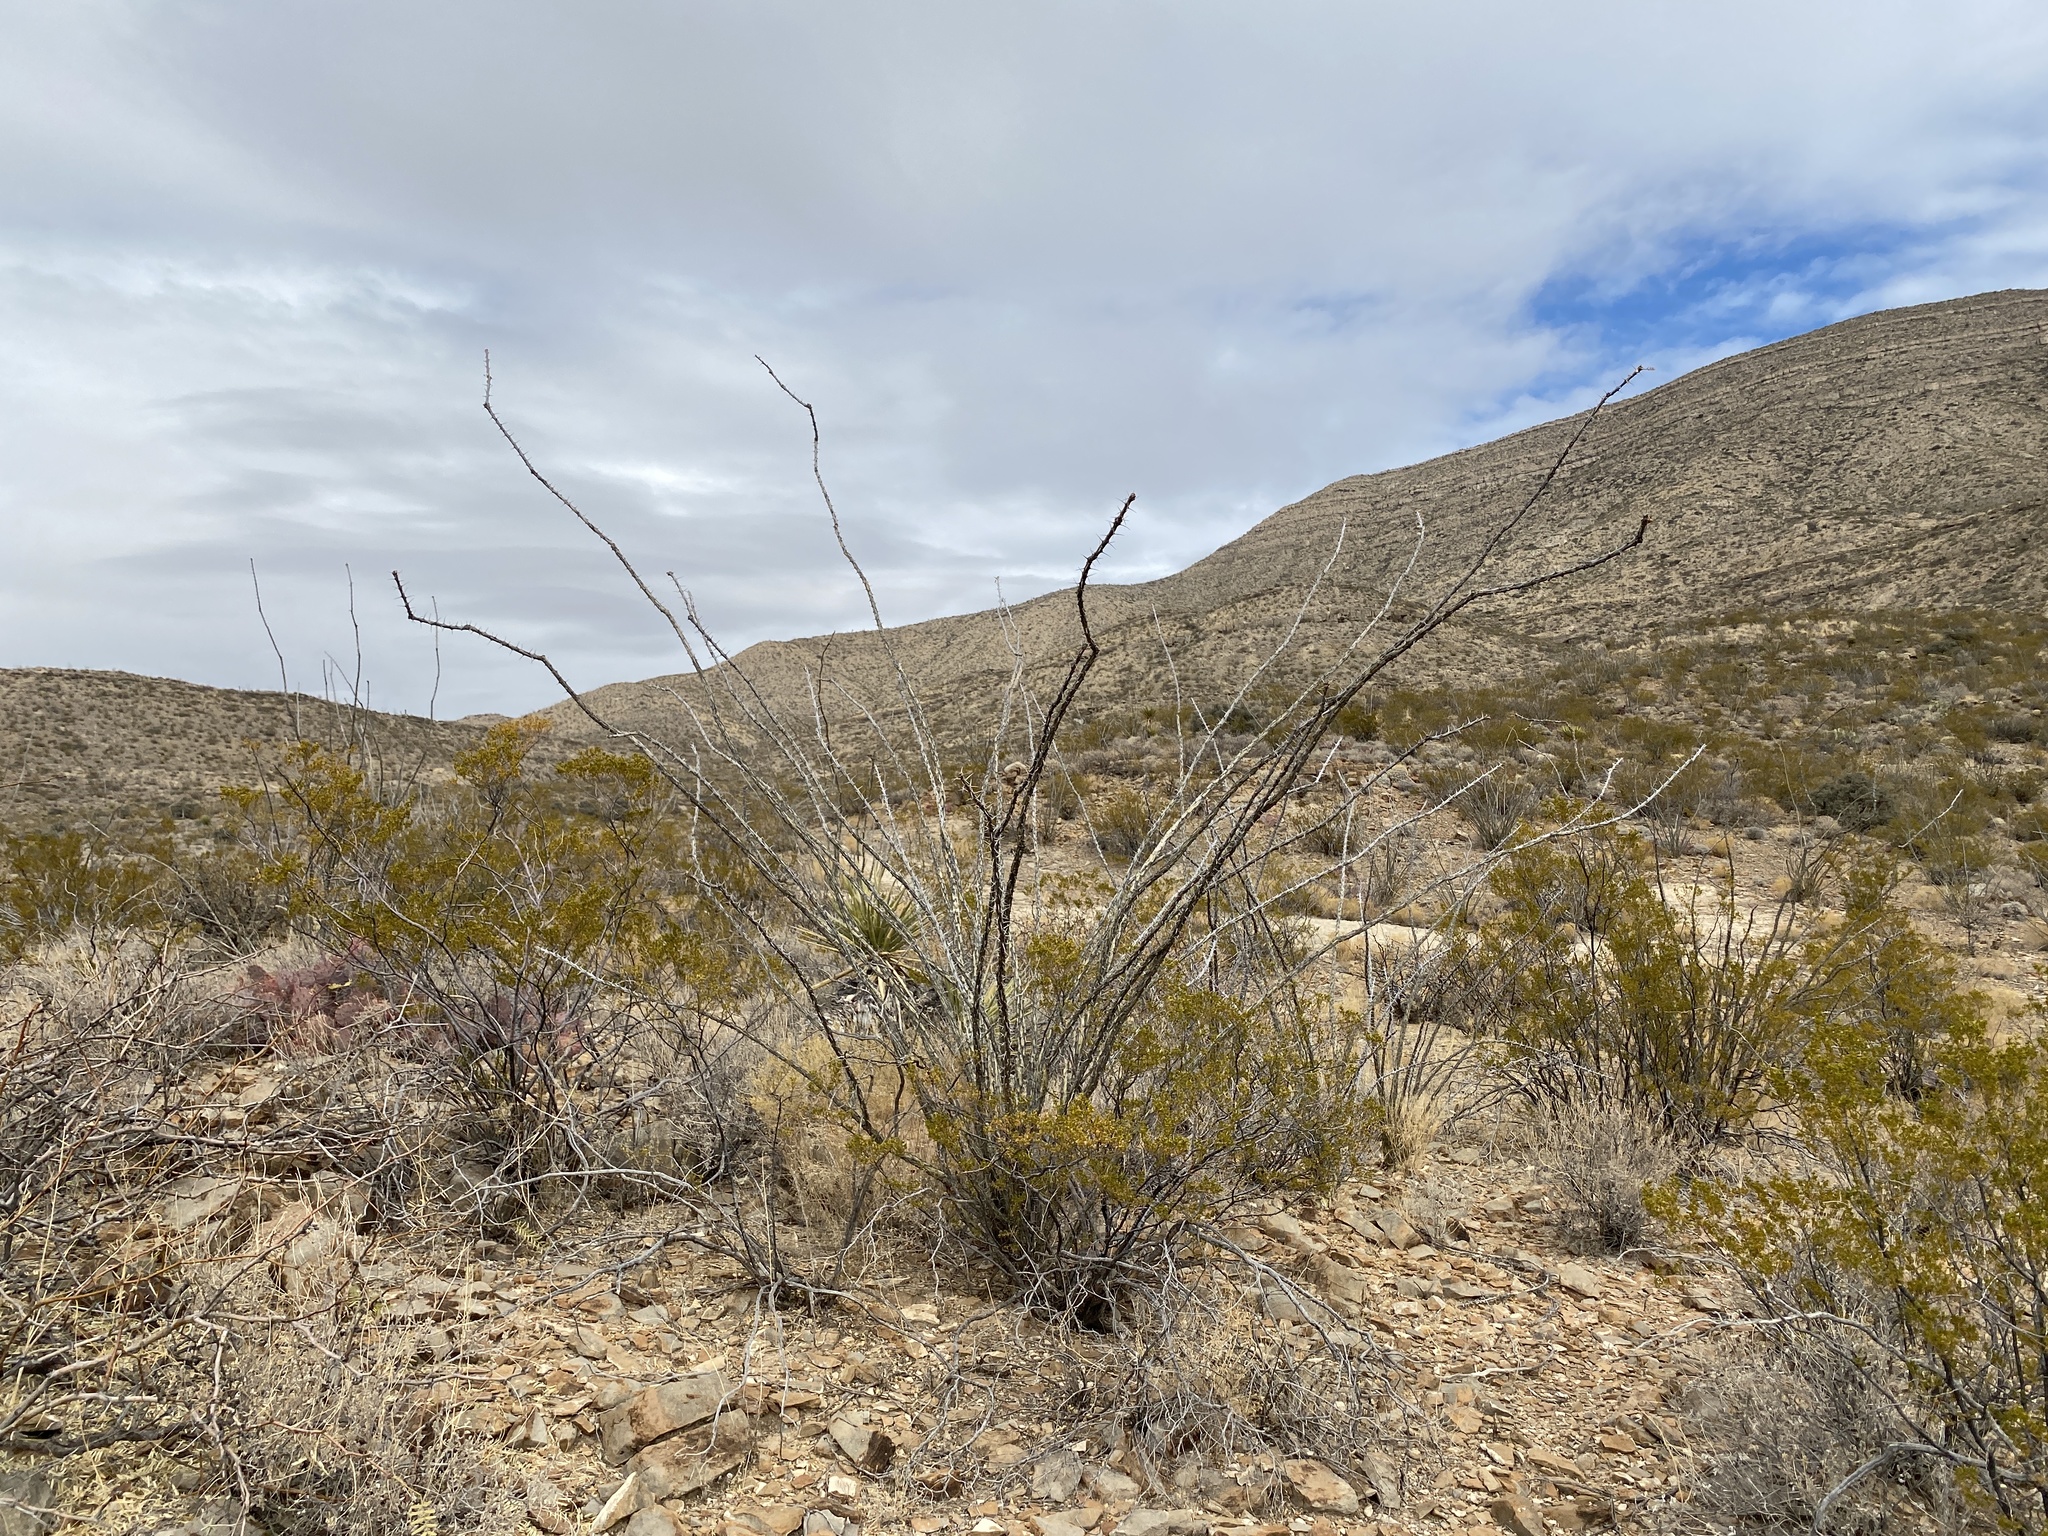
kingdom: Plantae
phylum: Tracheophyta
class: Magnoliopsida
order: Ericales
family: Fouquieriaceae
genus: Fouquieria
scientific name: Fouquieria splendens
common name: Vine-cactus
